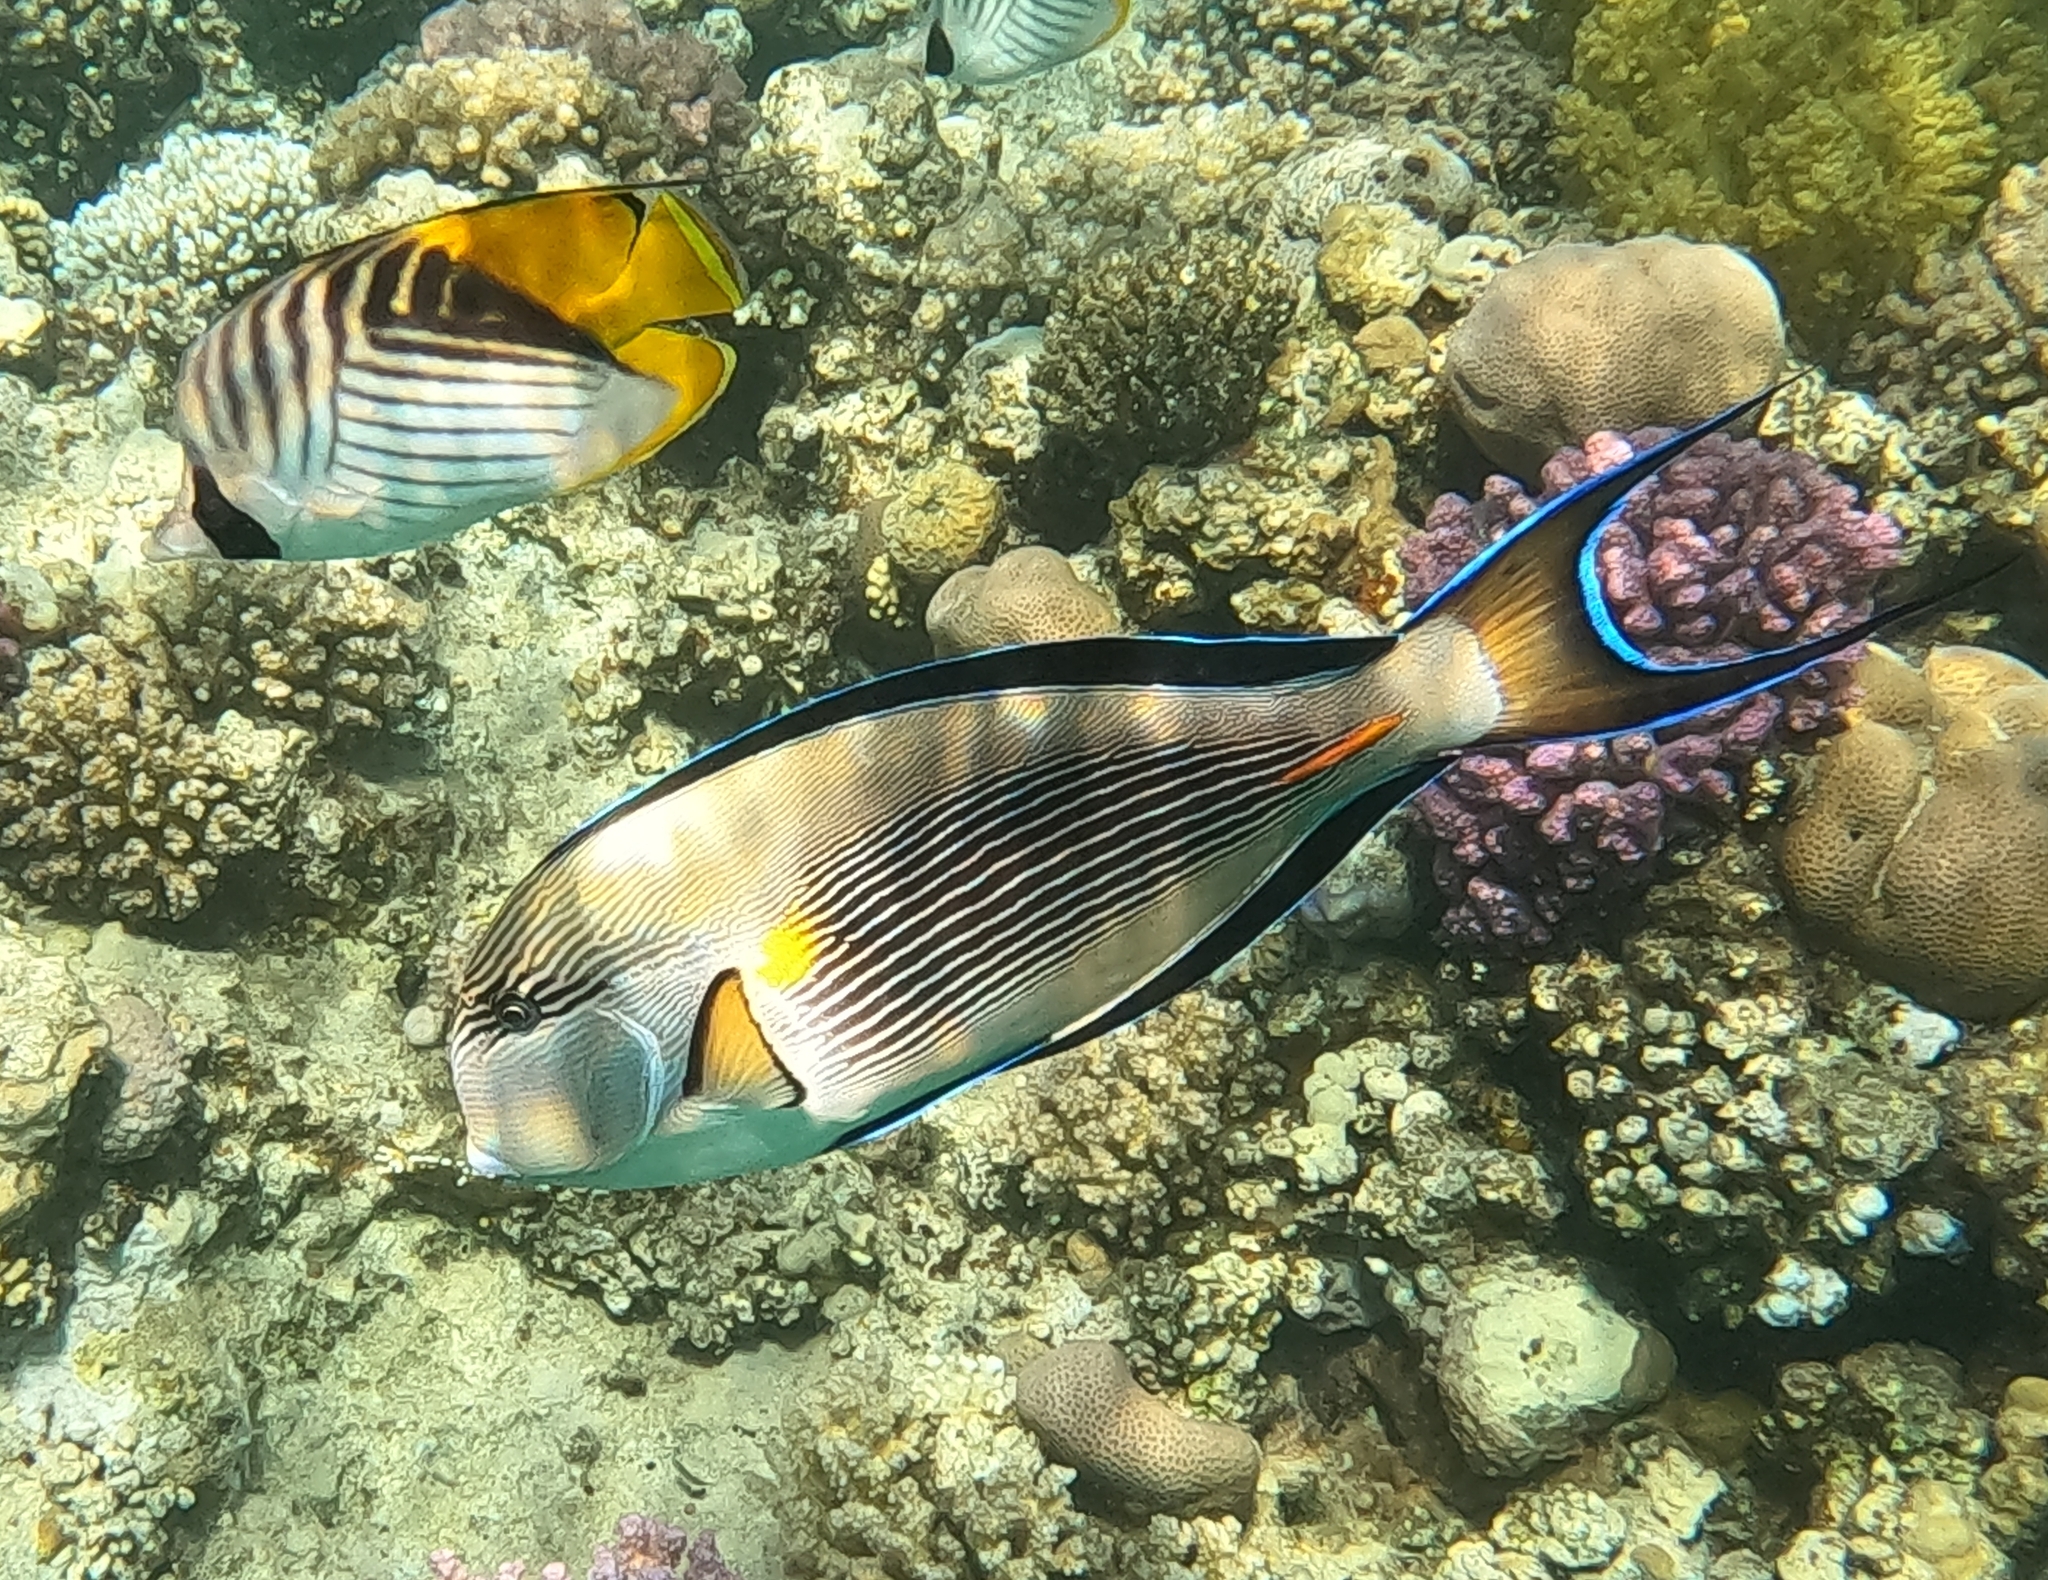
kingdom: Animalia
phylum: Chordata
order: Perciformes
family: Acanthuridae
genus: Acanthurus
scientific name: Acanthurus sohal
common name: Red sea surgeonfish
